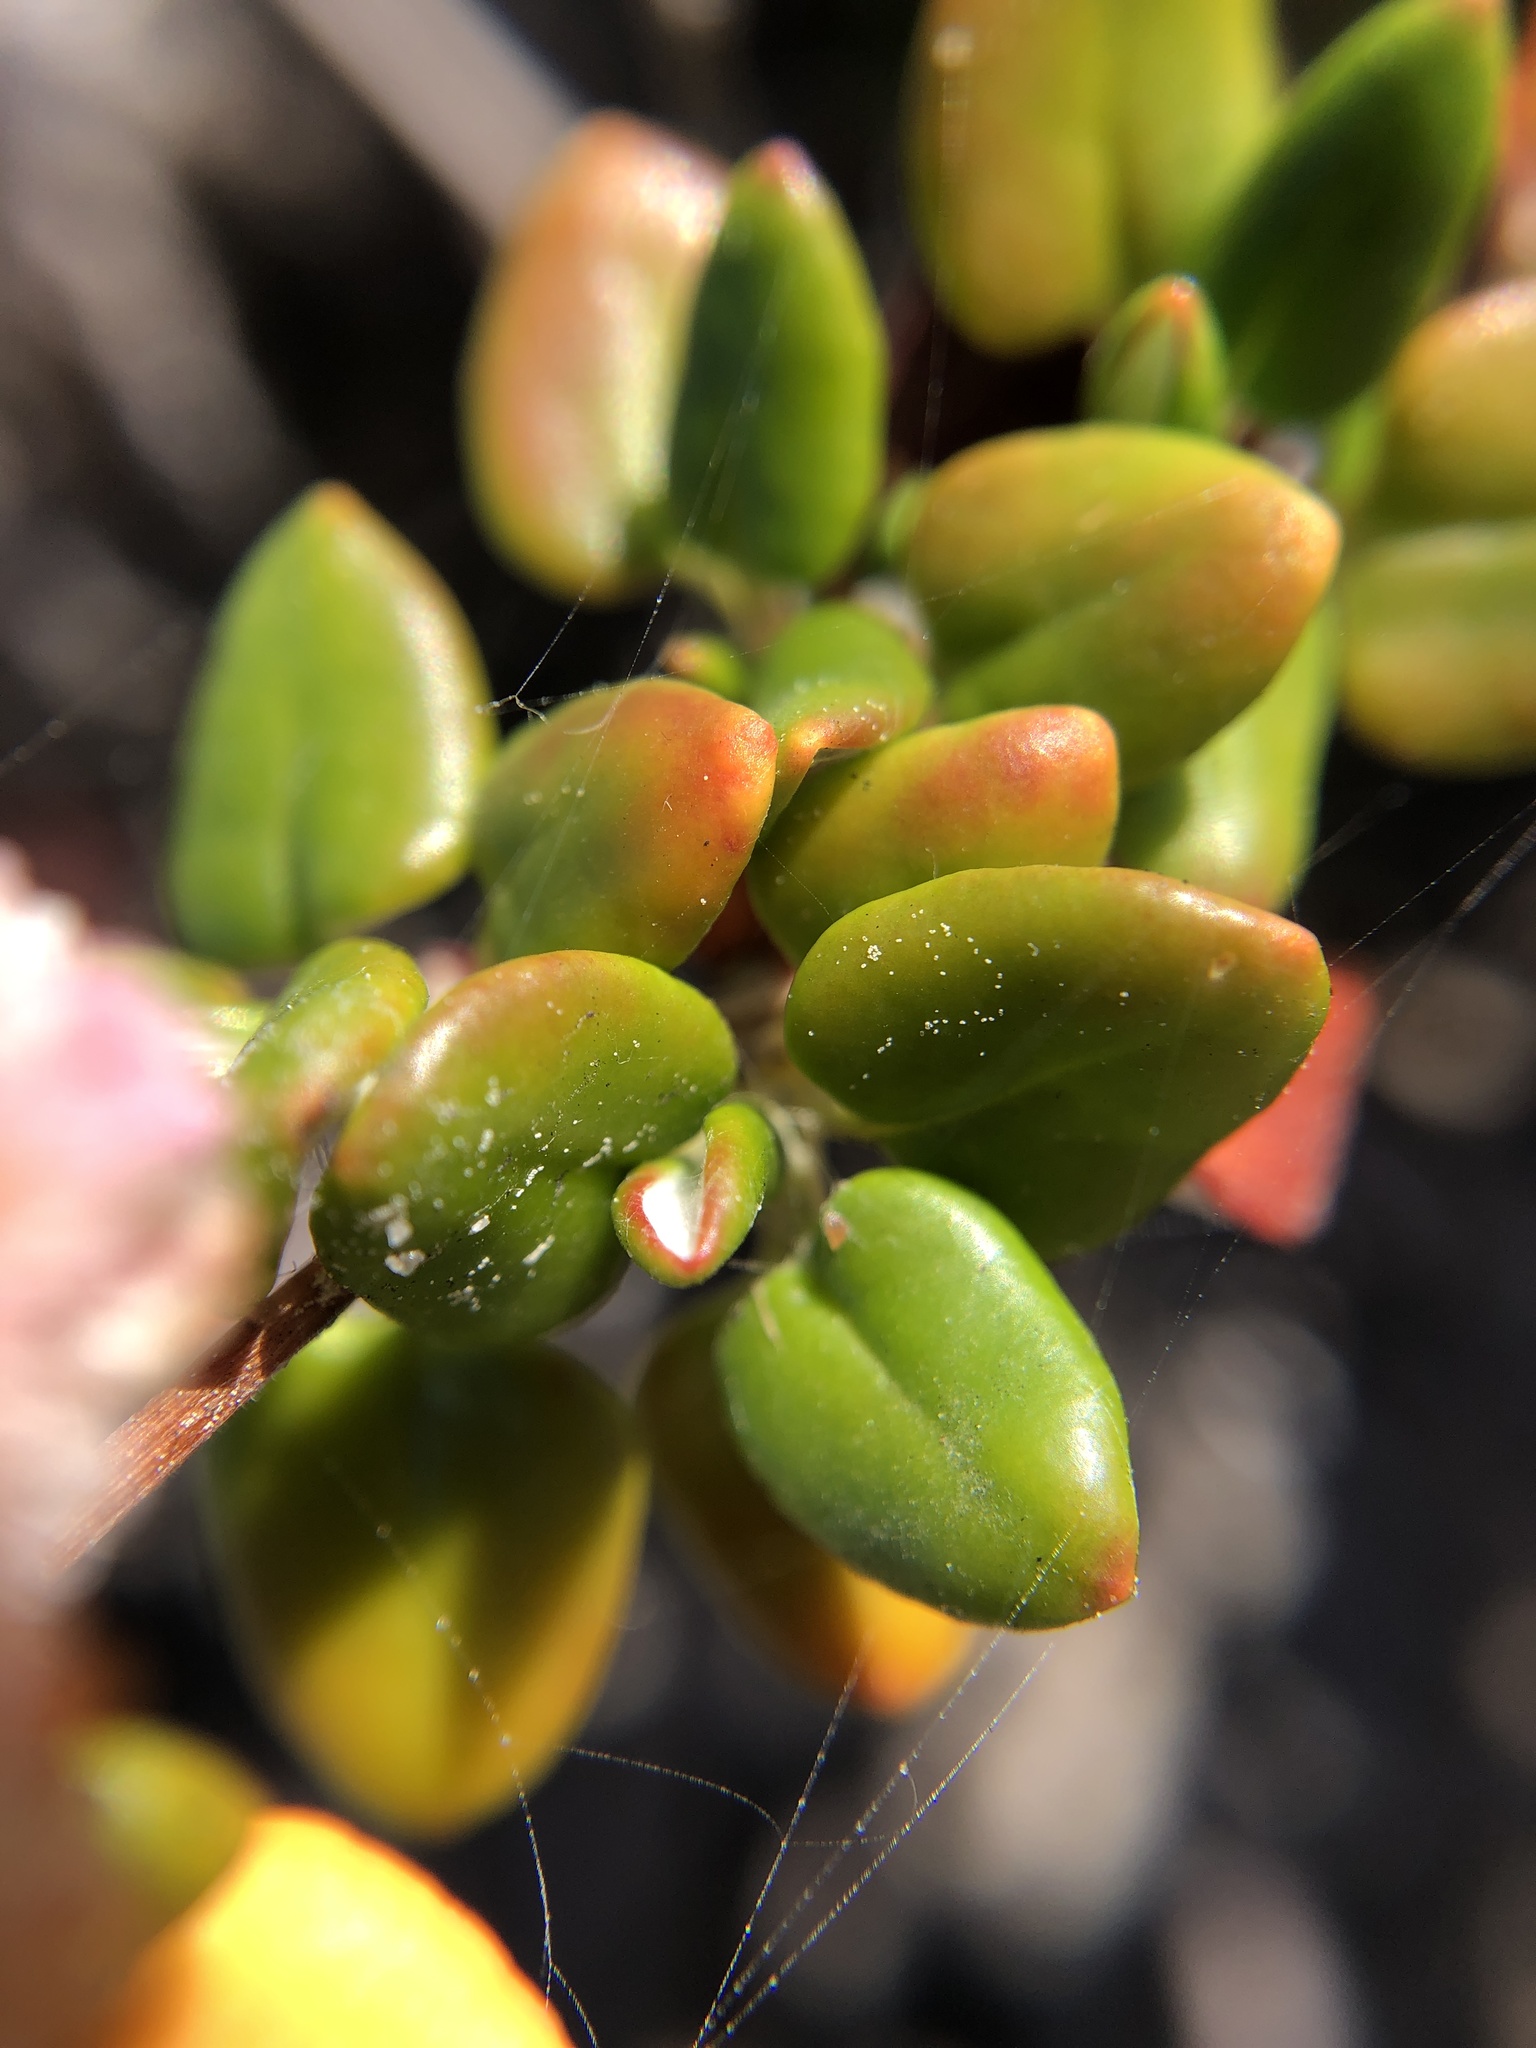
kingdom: Plantae
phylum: Tracheophyta
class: Magnoliopsida
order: Caryophyllales
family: Polygonaceae
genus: Eriogonum
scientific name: Eriogonum parvifolium
